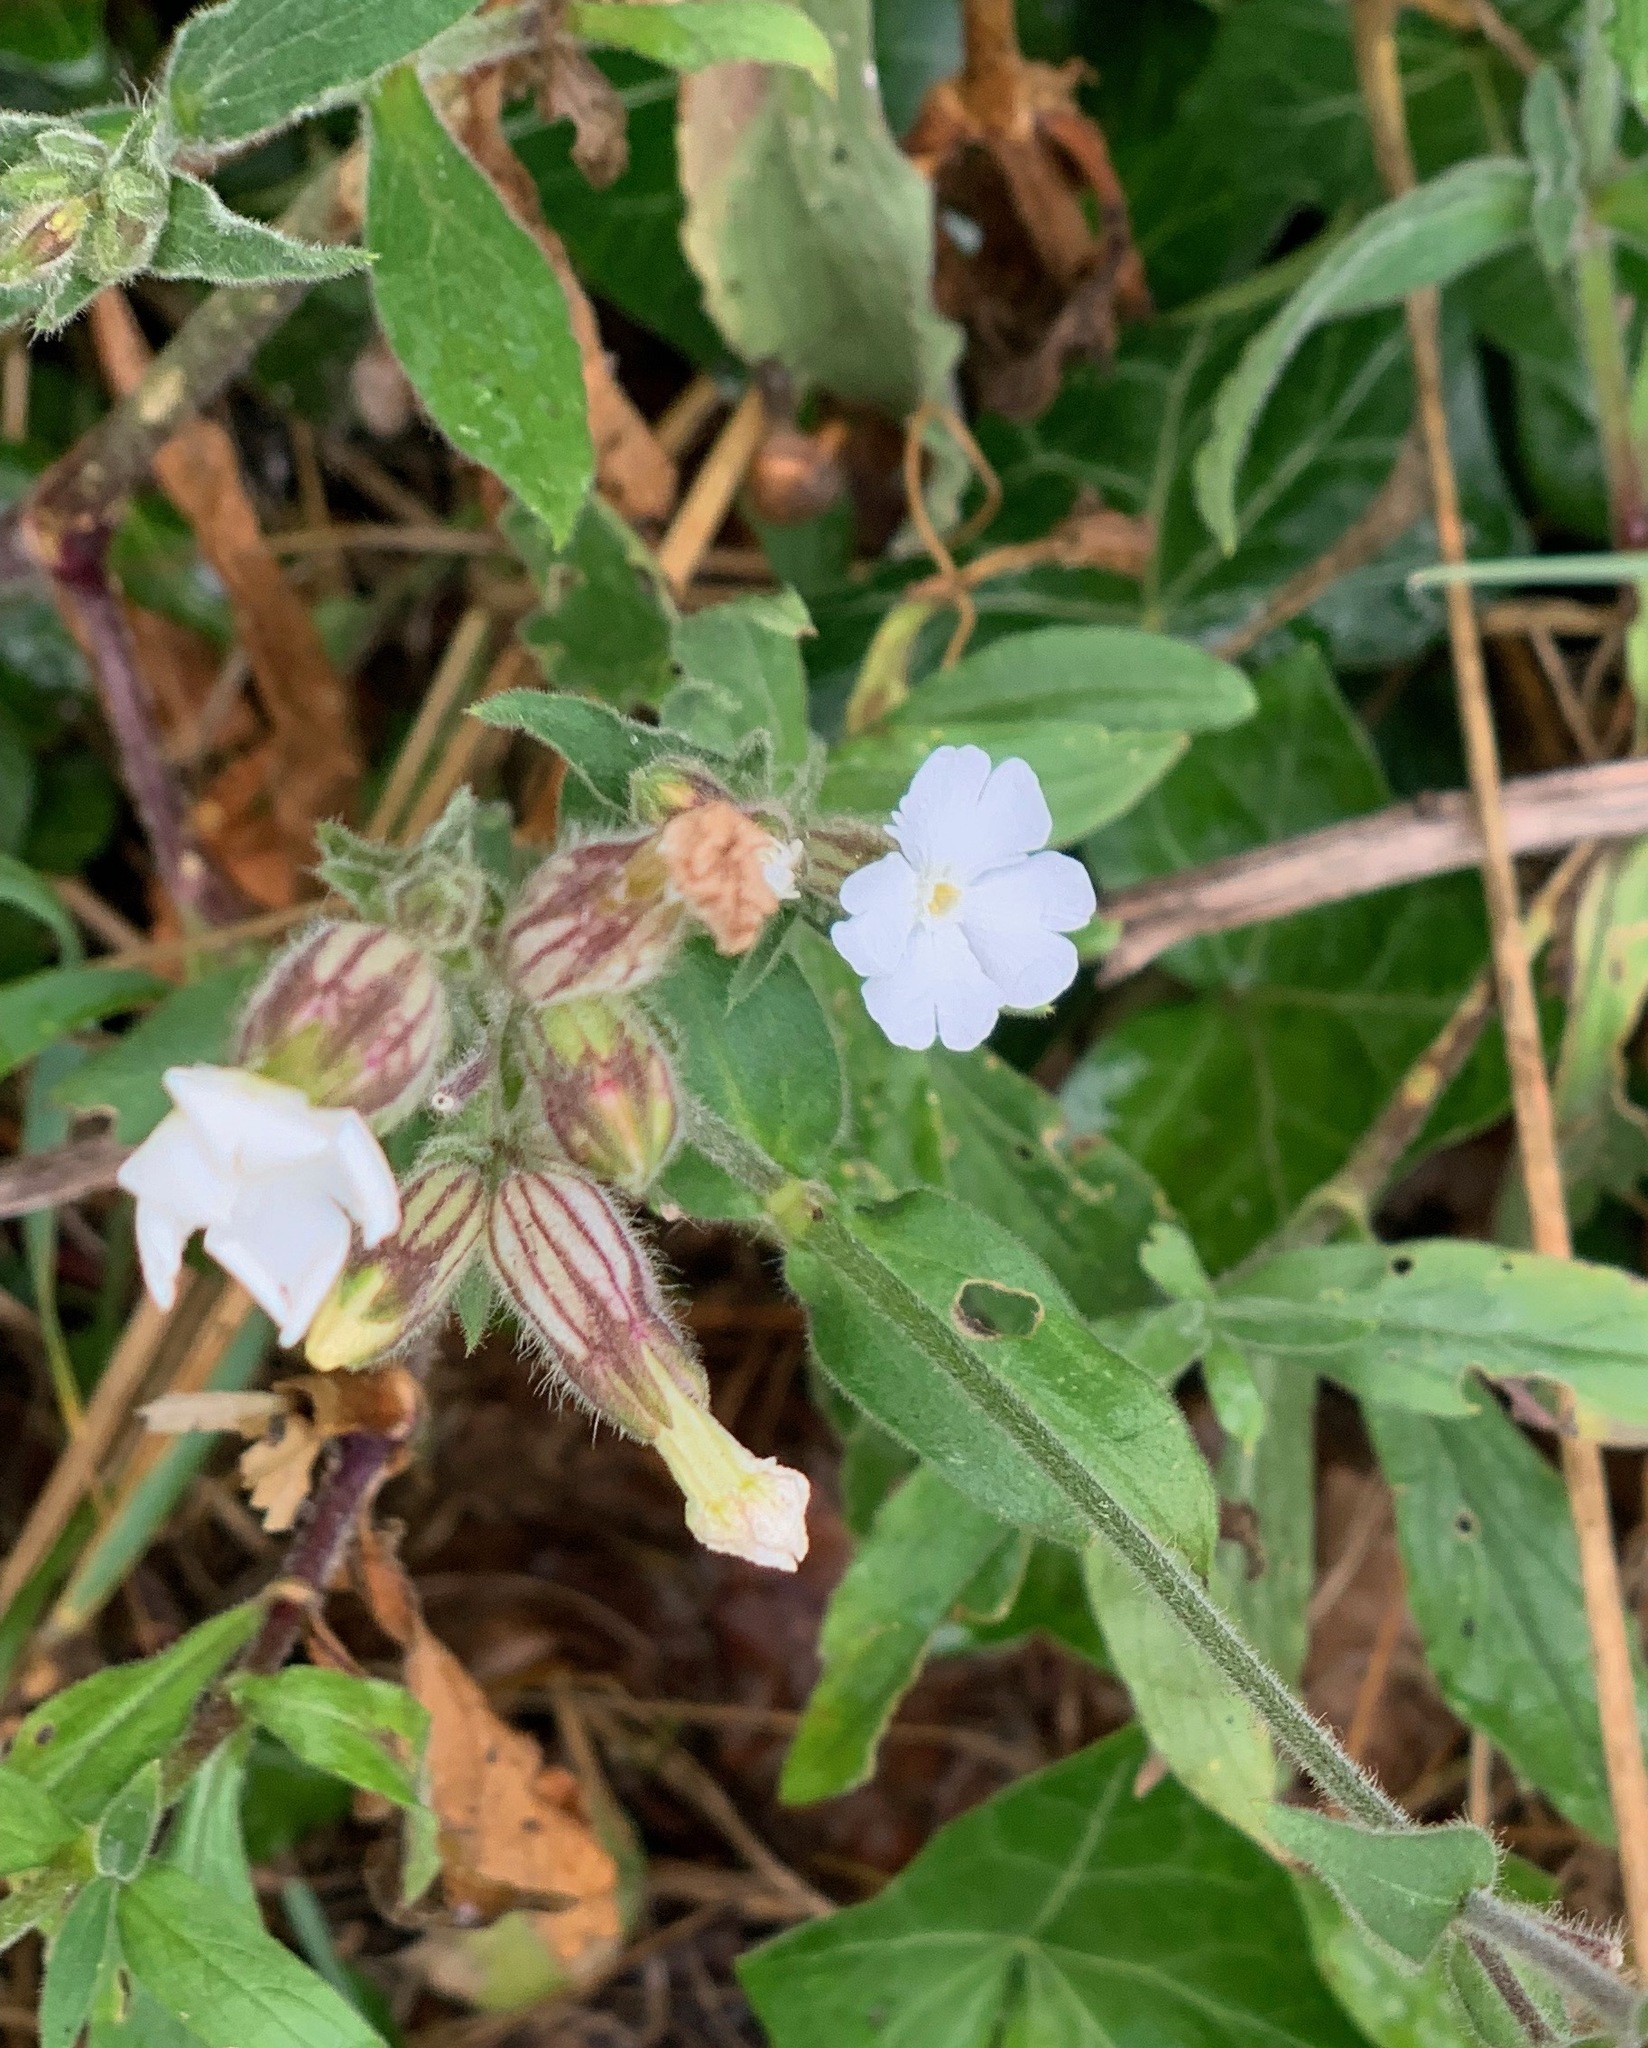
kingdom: Plantae
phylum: Tracheophyta
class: Magnoliopsida
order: Caryophyllales
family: Caryophyllaceae
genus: Silene
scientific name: Silene latifolia
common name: White campion
